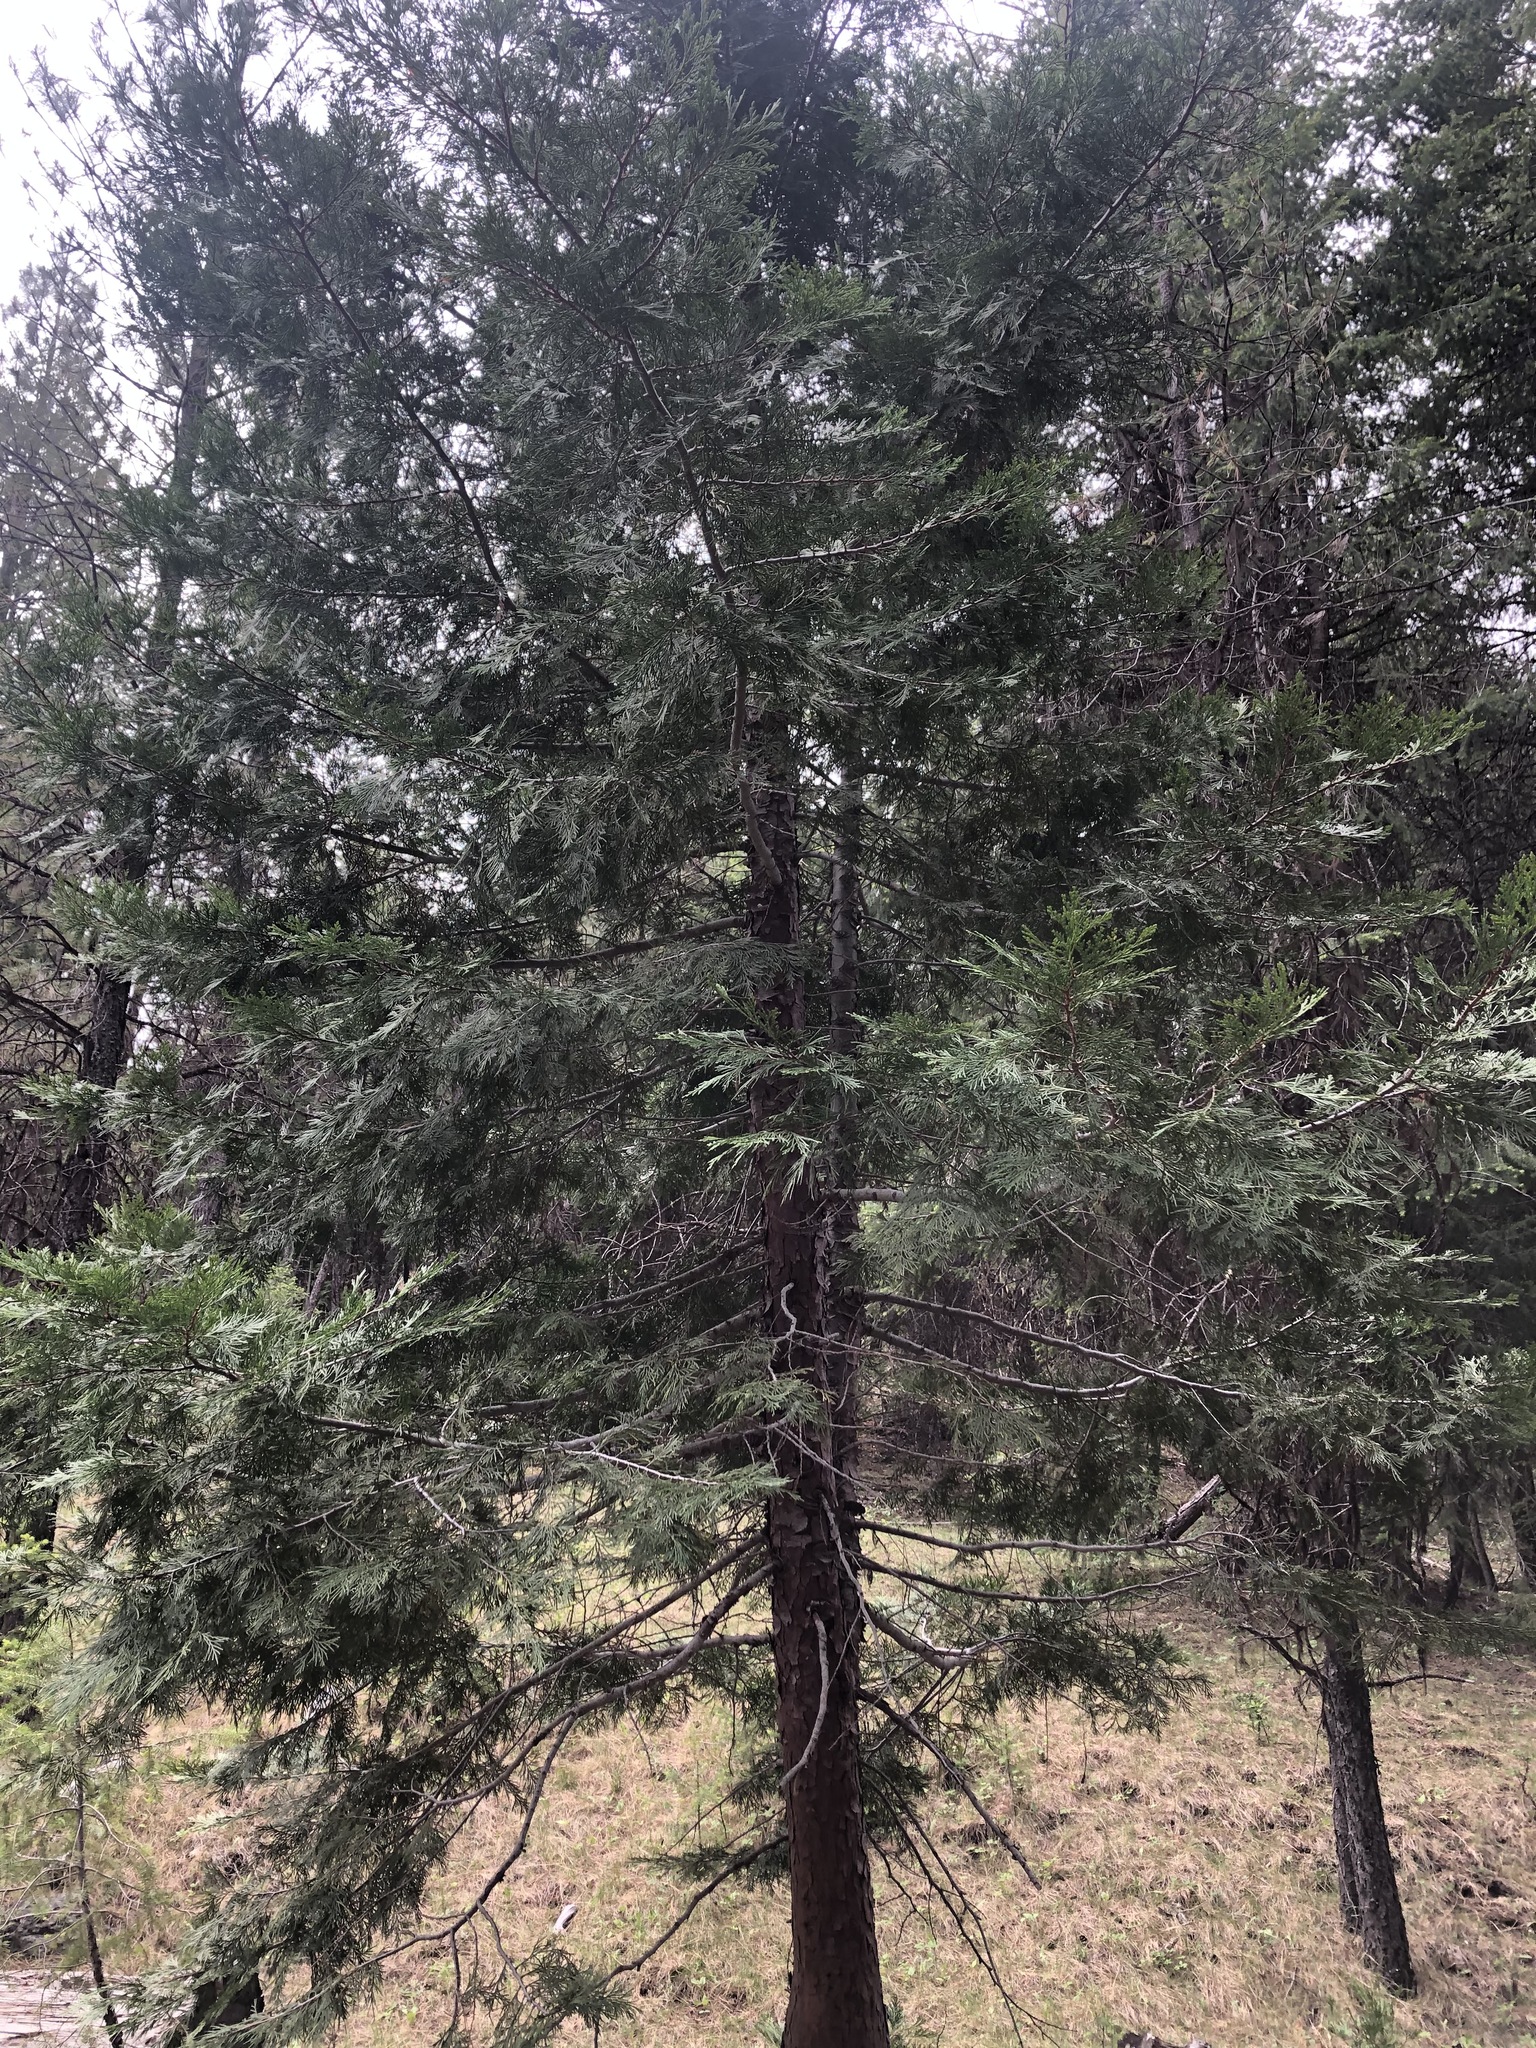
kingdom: Plantae
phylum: Tracheophyta
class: Pinopsida
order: Pinales
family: Cupressaceae
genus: Calocedrus
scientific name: Calocedrus decurrens
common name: Californian incense-cedar
